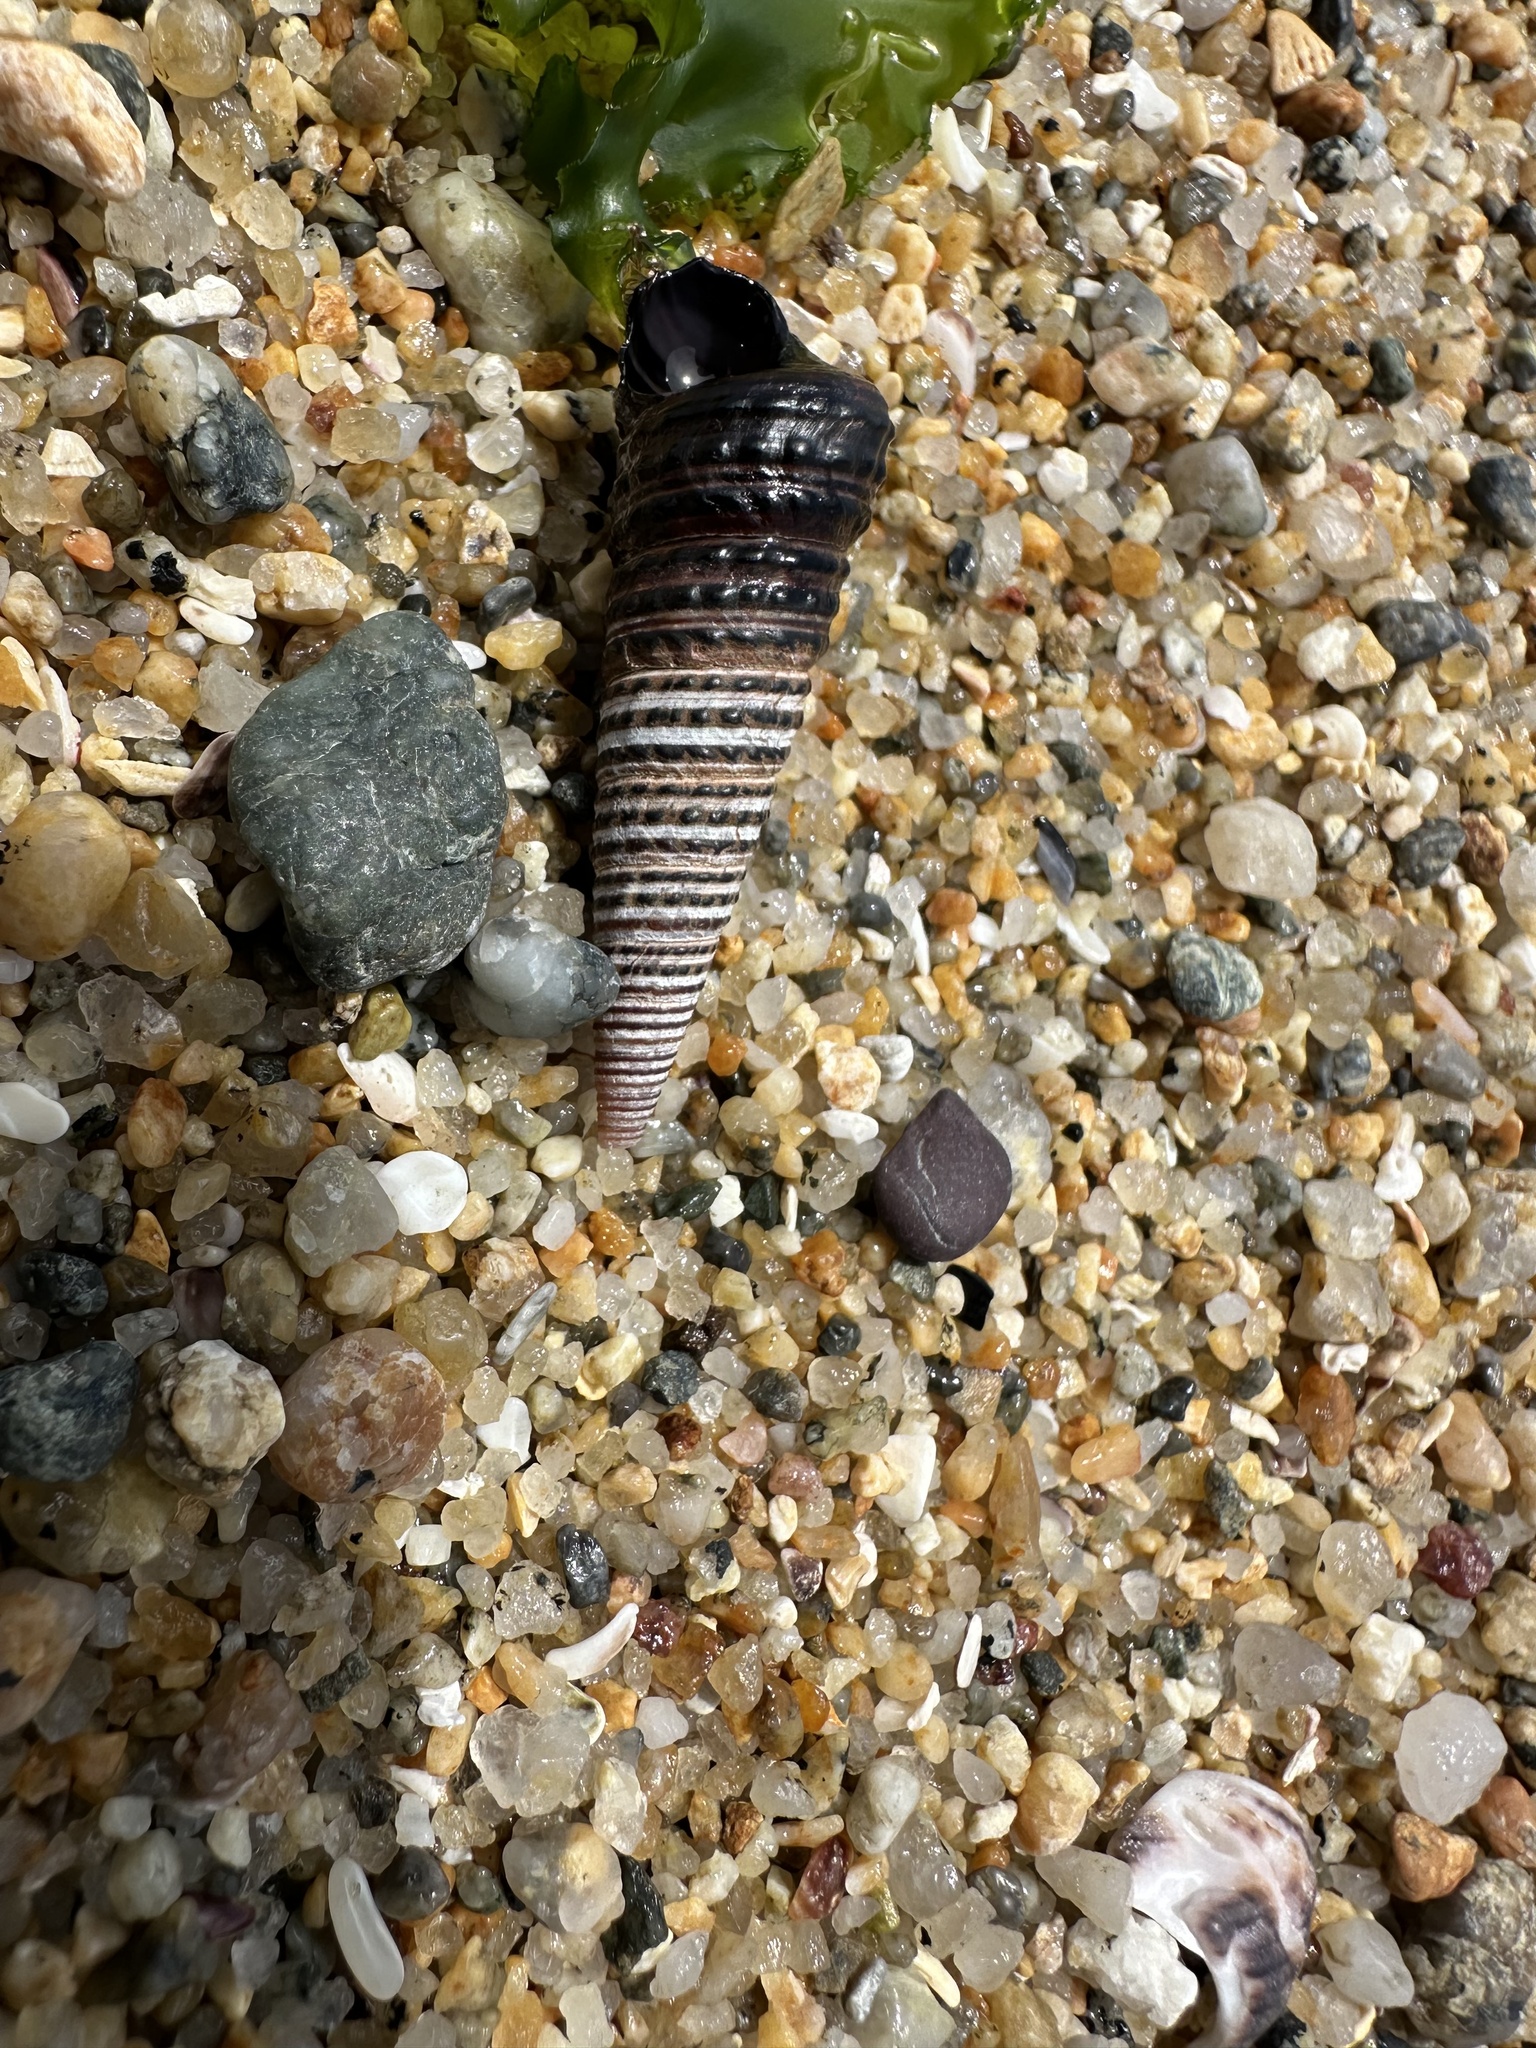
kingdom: Animalia
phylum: Mollusca
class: Gastropoda
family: Turritellidae
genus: Incatella
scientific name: Incatella cingulata
